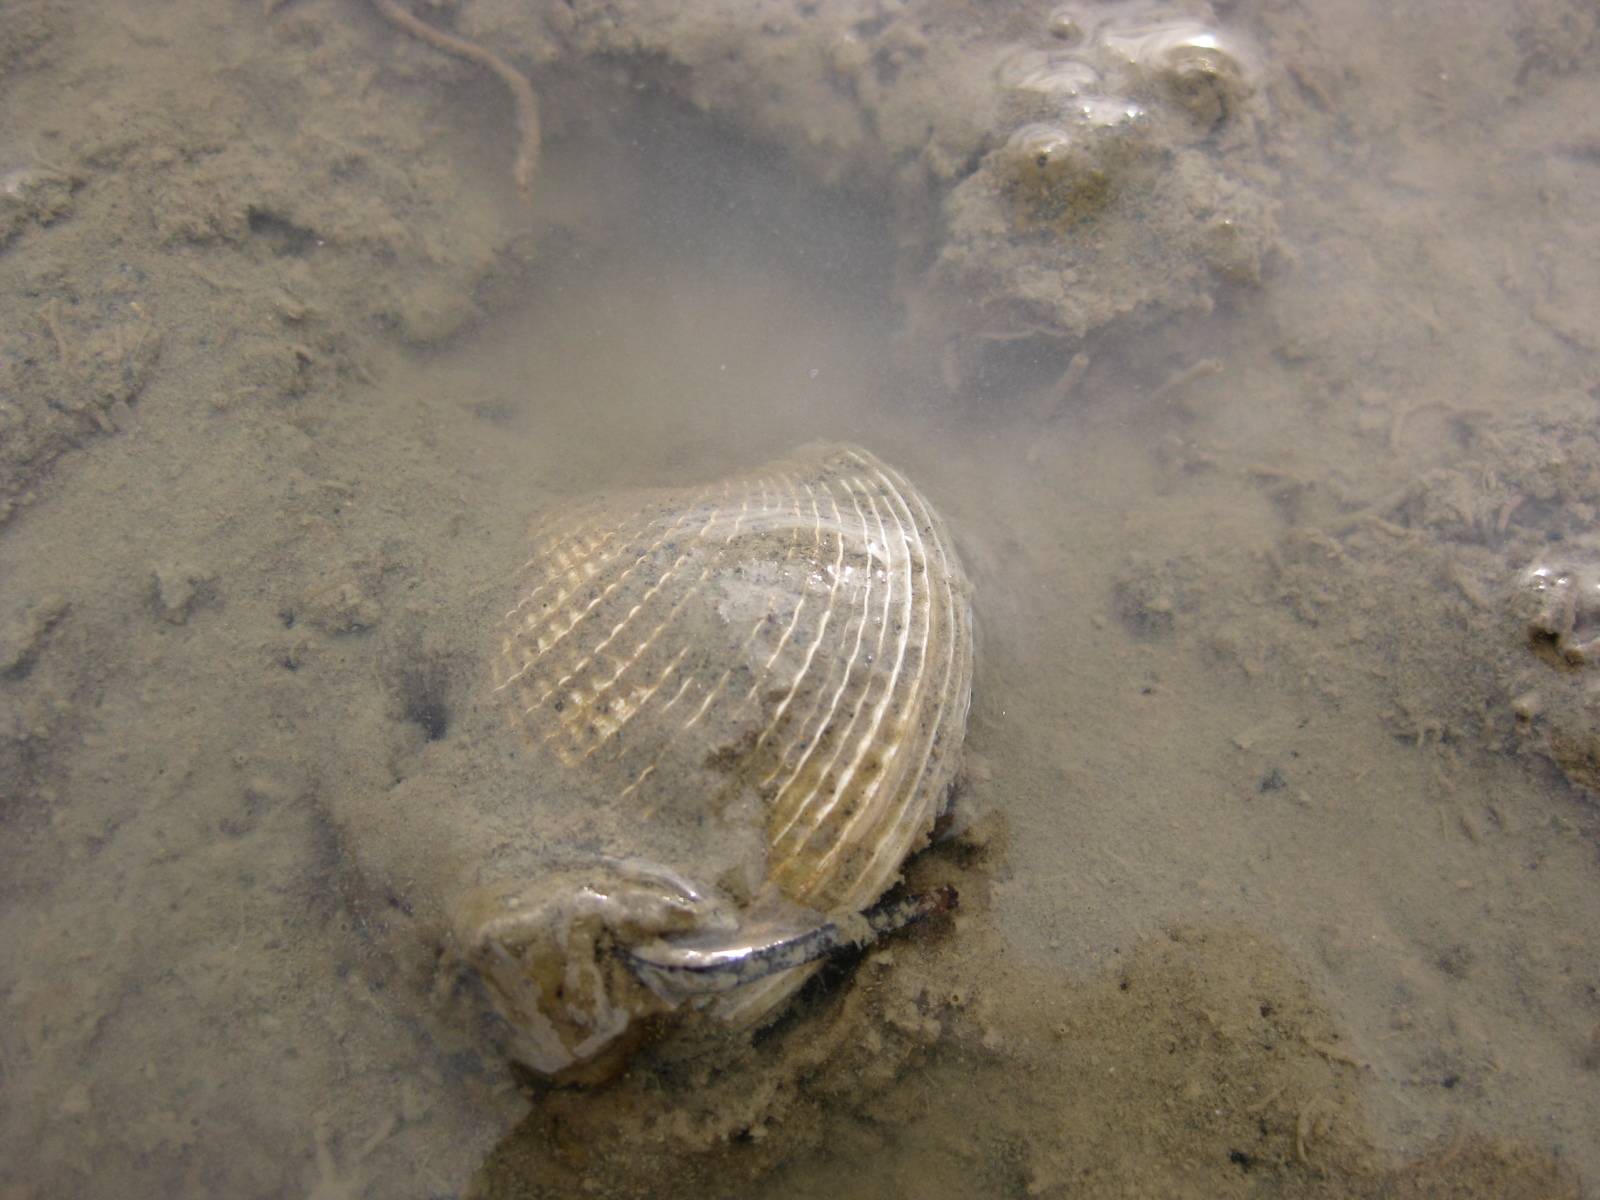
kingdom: Animalia
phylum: Mollusca
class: Bivalvia
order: Venerida
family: Veneridae
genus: Austrovenus
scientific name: Austrovenus stutchburyi
